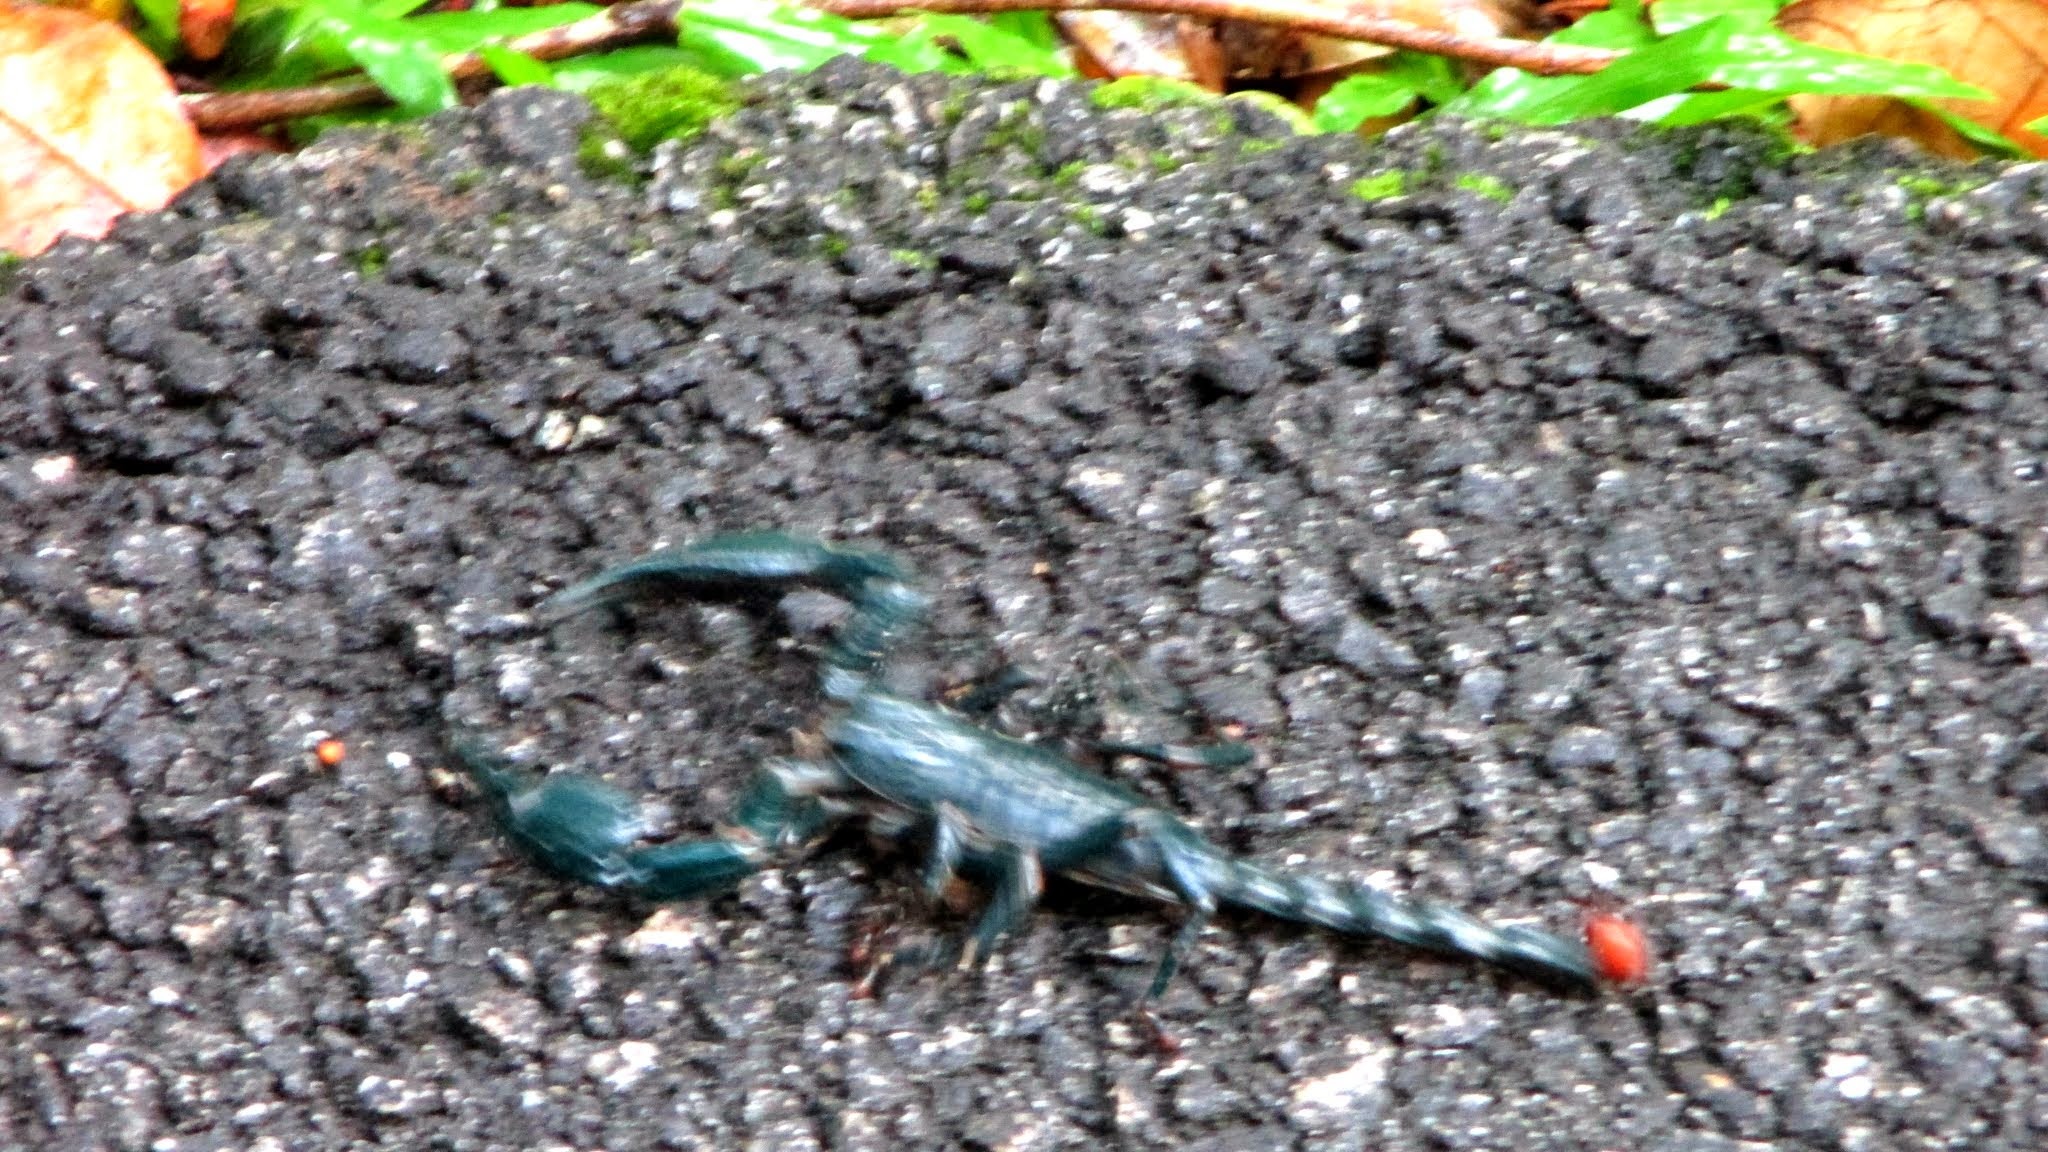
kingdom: Animalia
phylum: Arthropoda
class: Arachnida
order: Scorpiones
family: Scorpionidae
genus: Heterometrus
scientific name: Heterometrus spinifer
